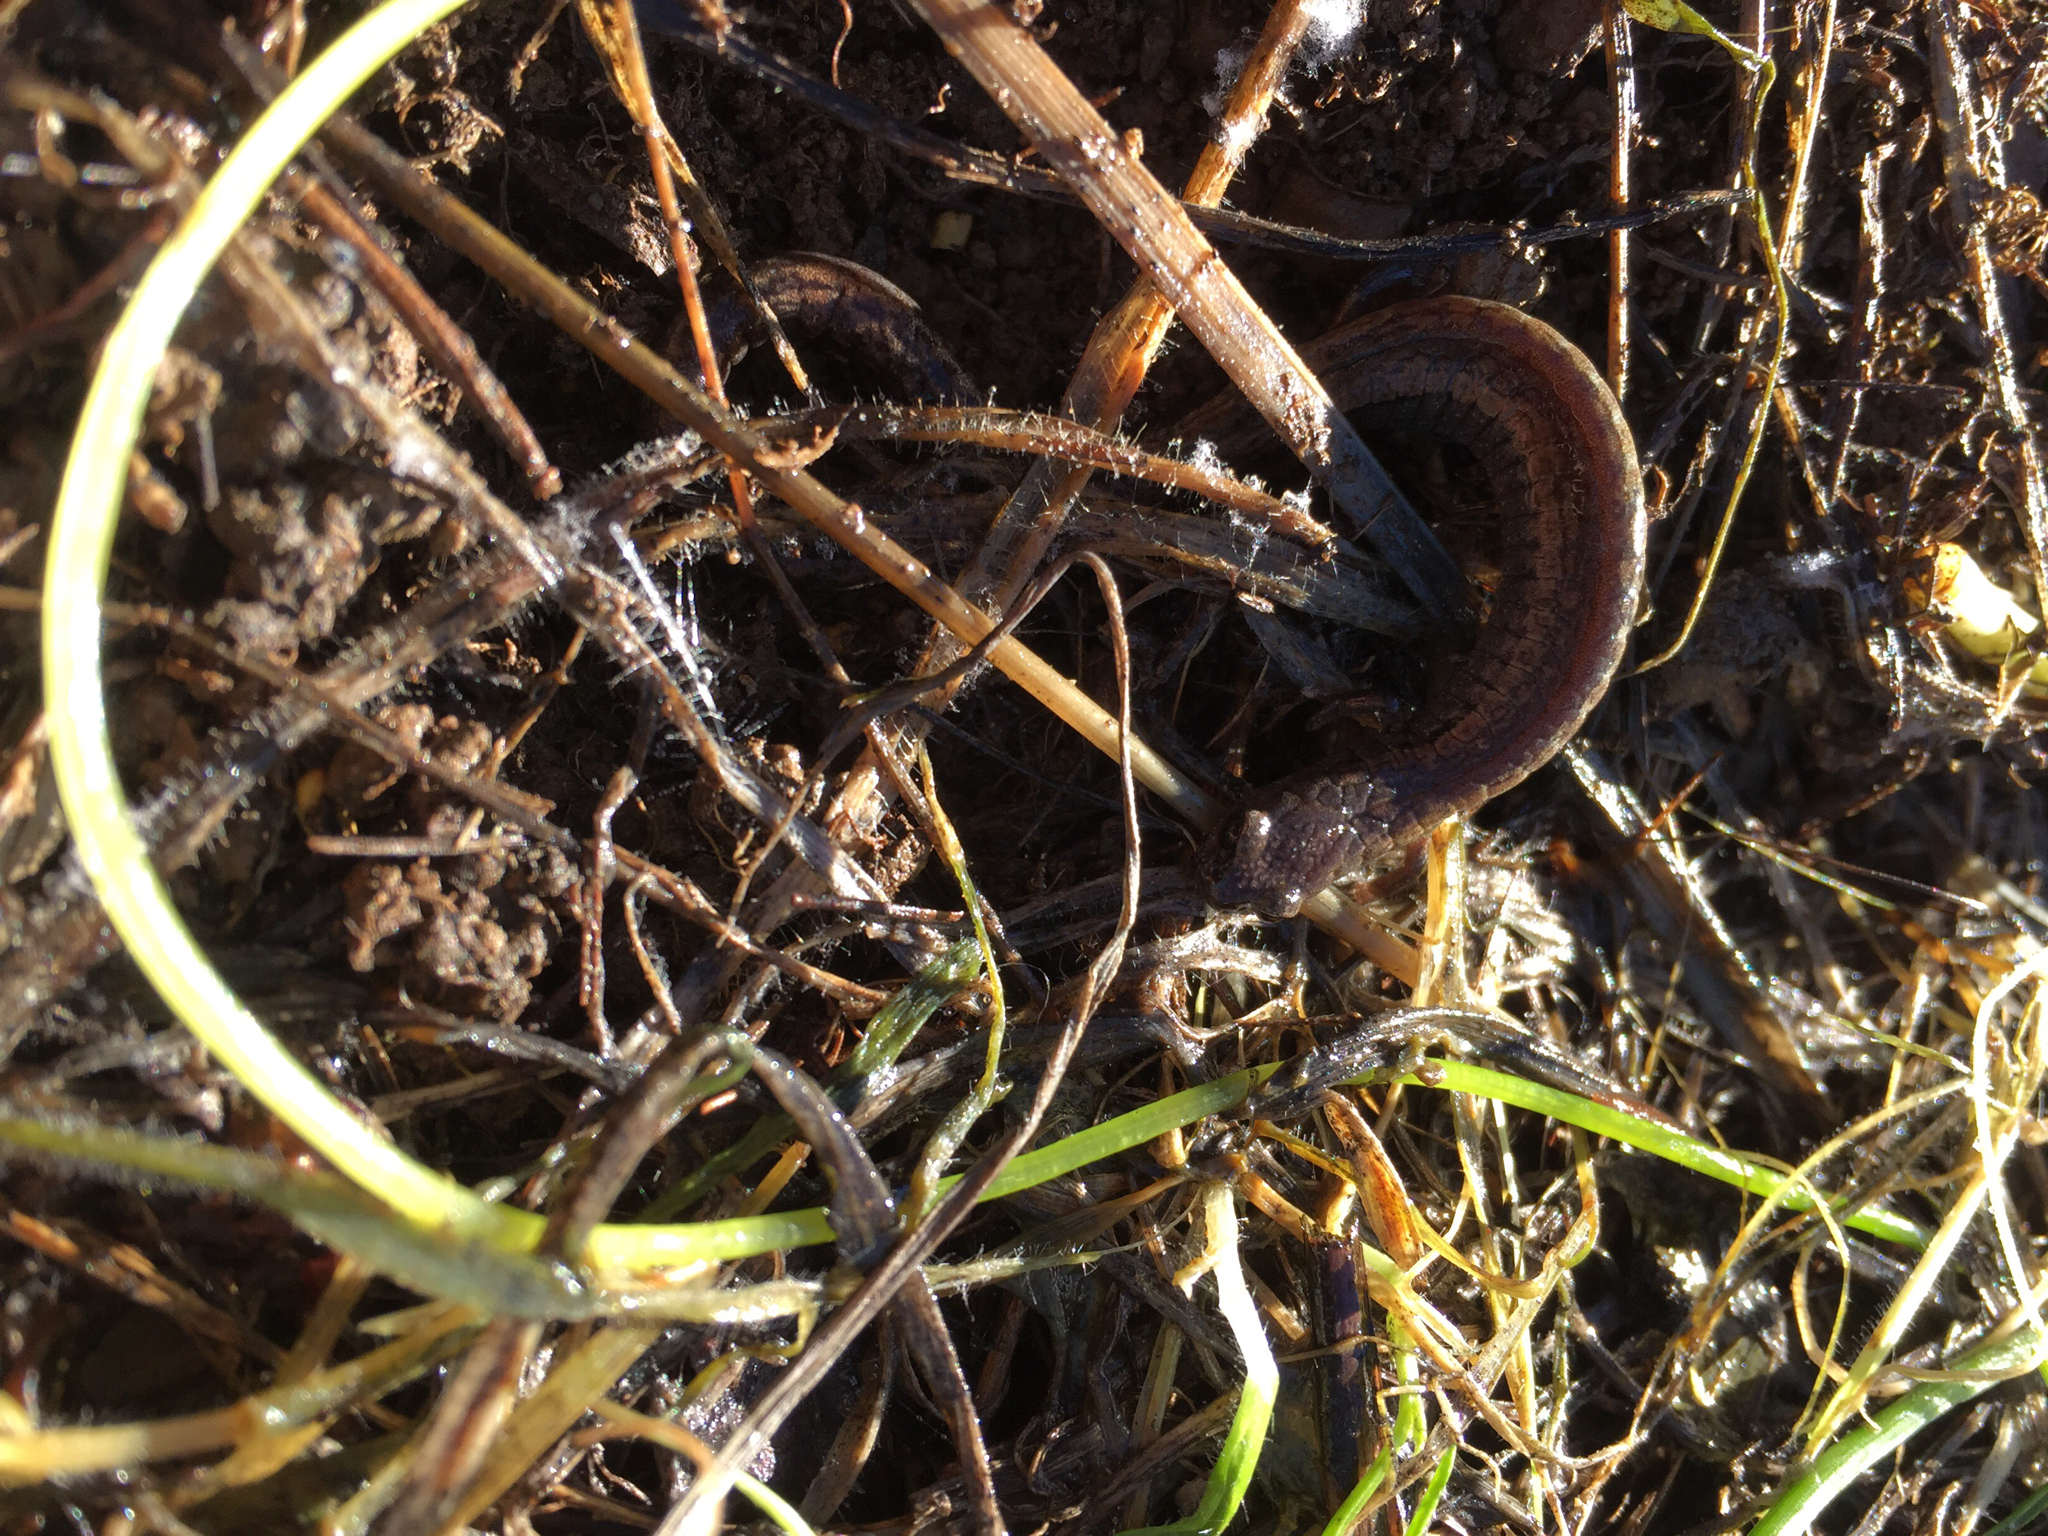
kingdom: Animalia
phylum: Chordata
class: Amphibia
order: Caudata
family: Plethodontidae
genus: Batrachoseps
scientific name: Batrachoseps attenuatus
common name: California slender salamander
